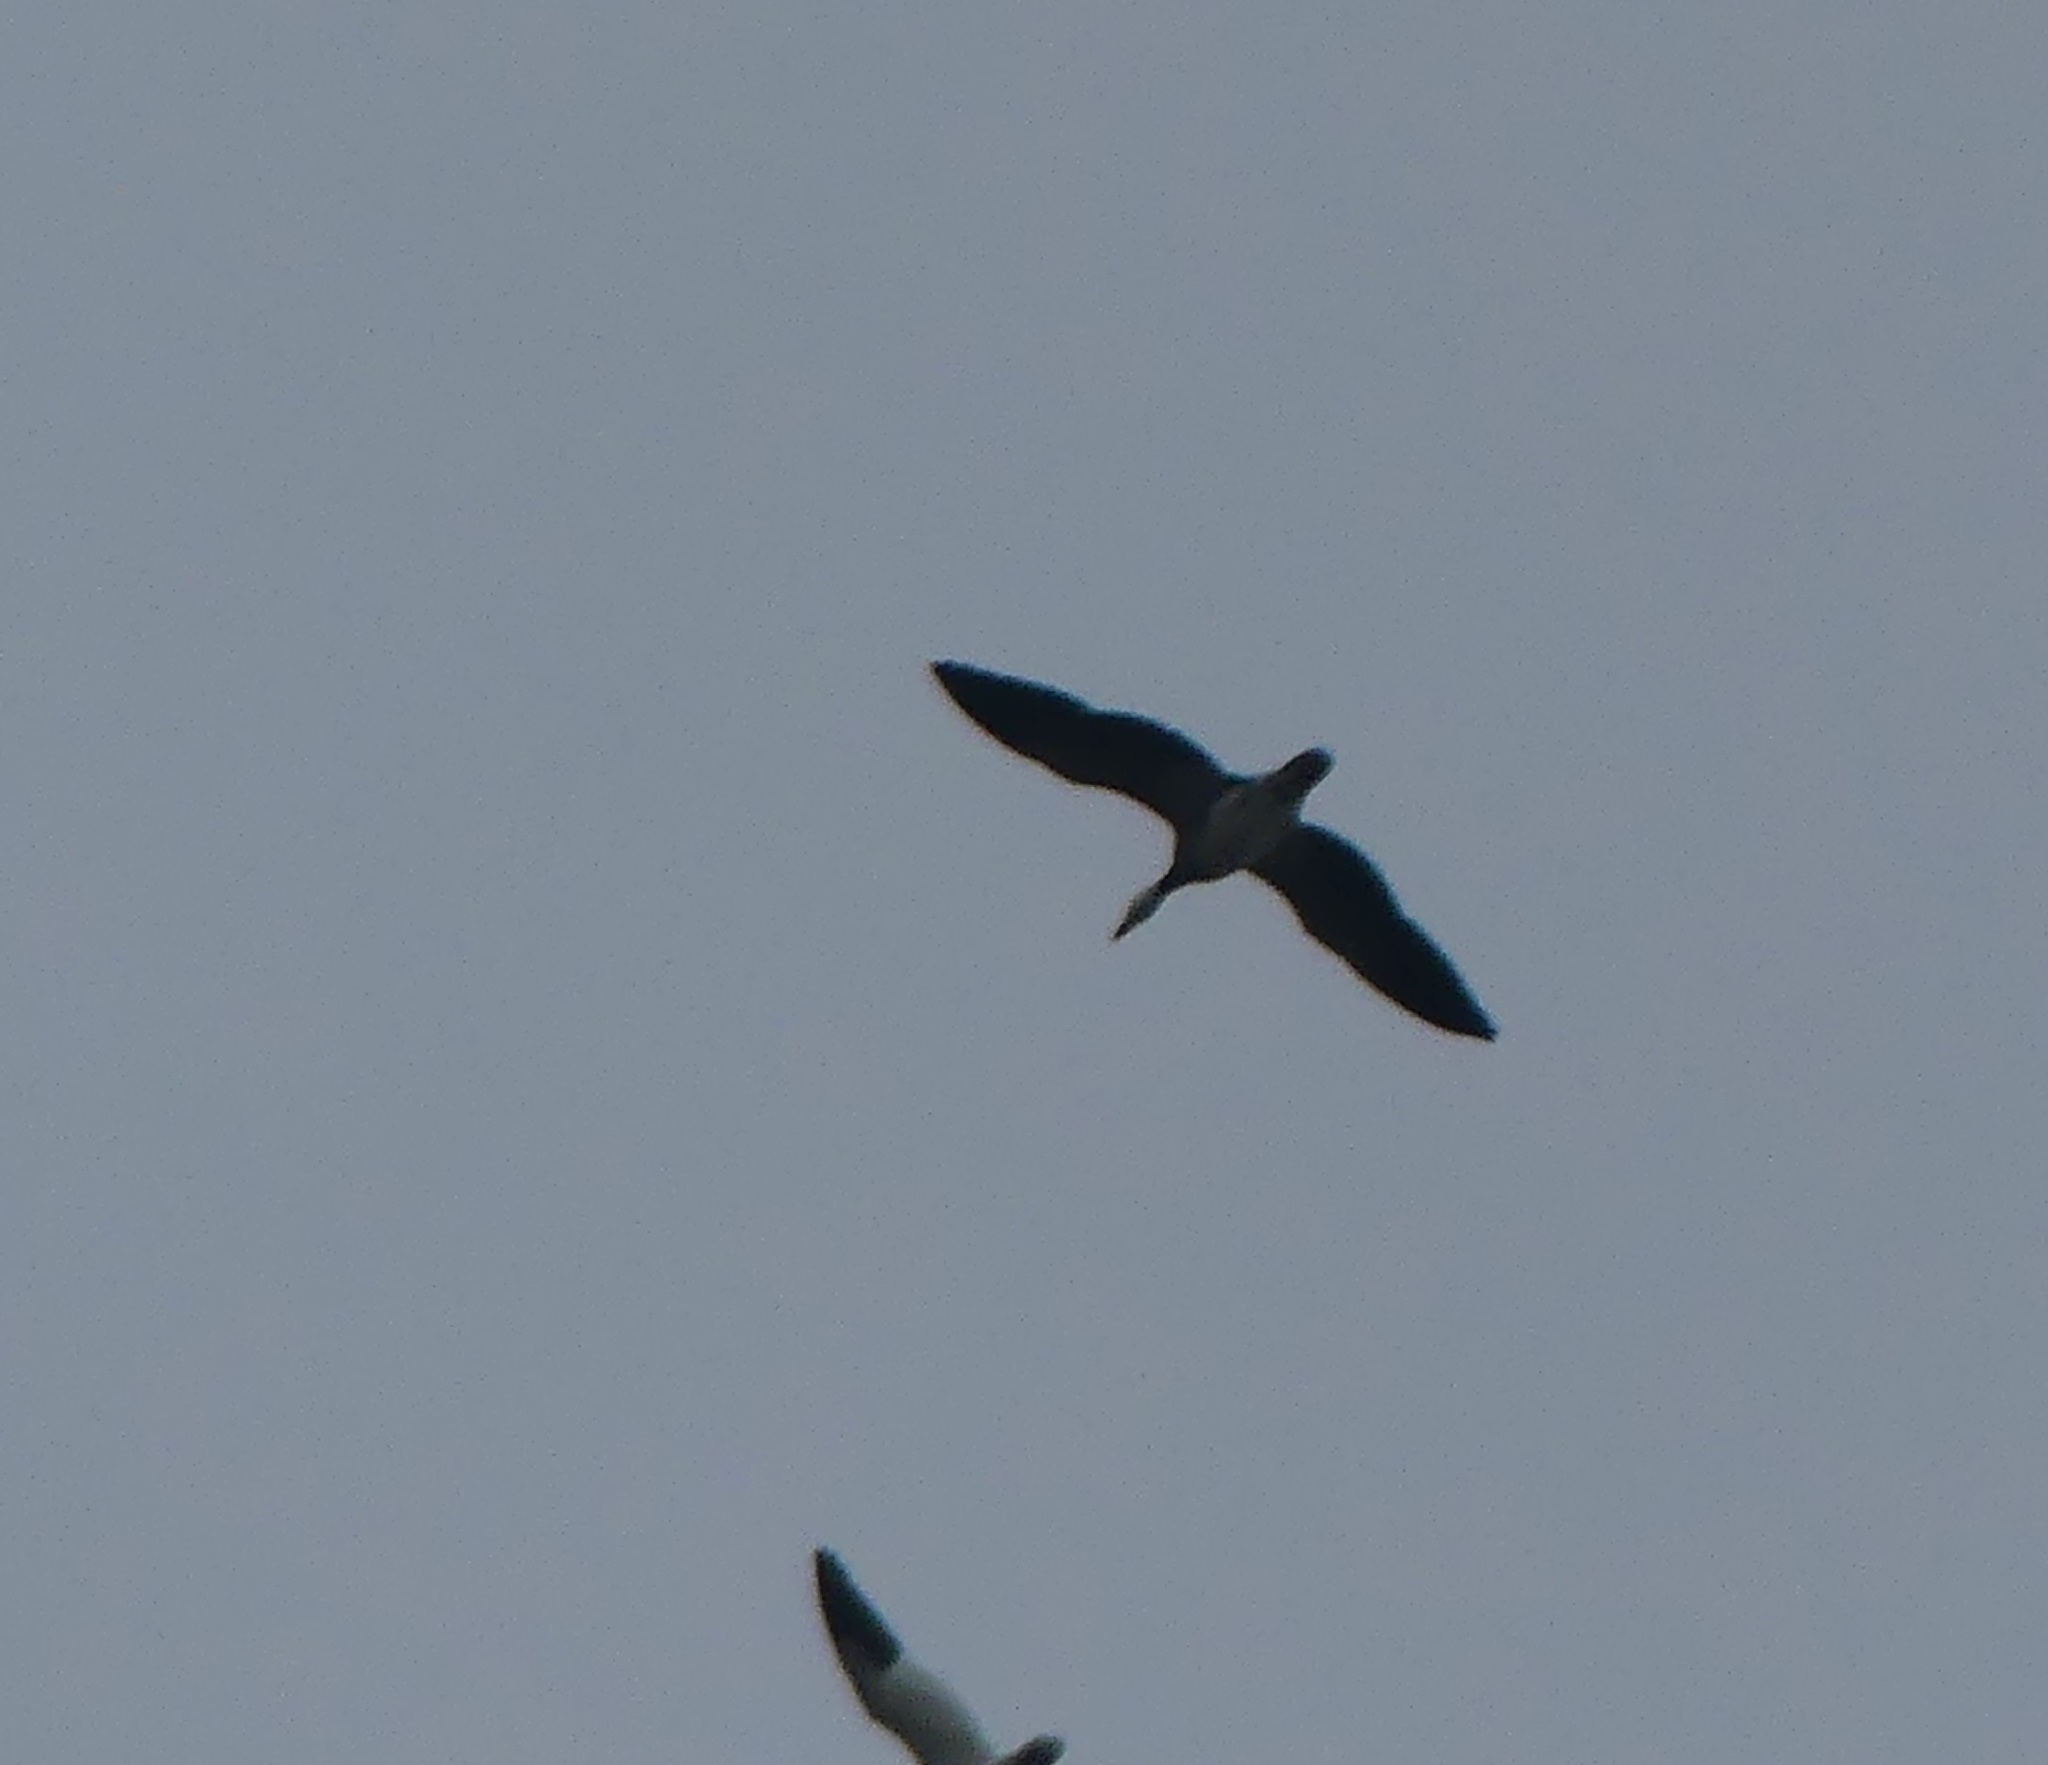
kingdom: Animalia
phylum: Chordata
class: Aves
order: Anseriformes
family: Anatidae
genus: Anser
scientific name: Anser caerulescens
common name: Snow goose
